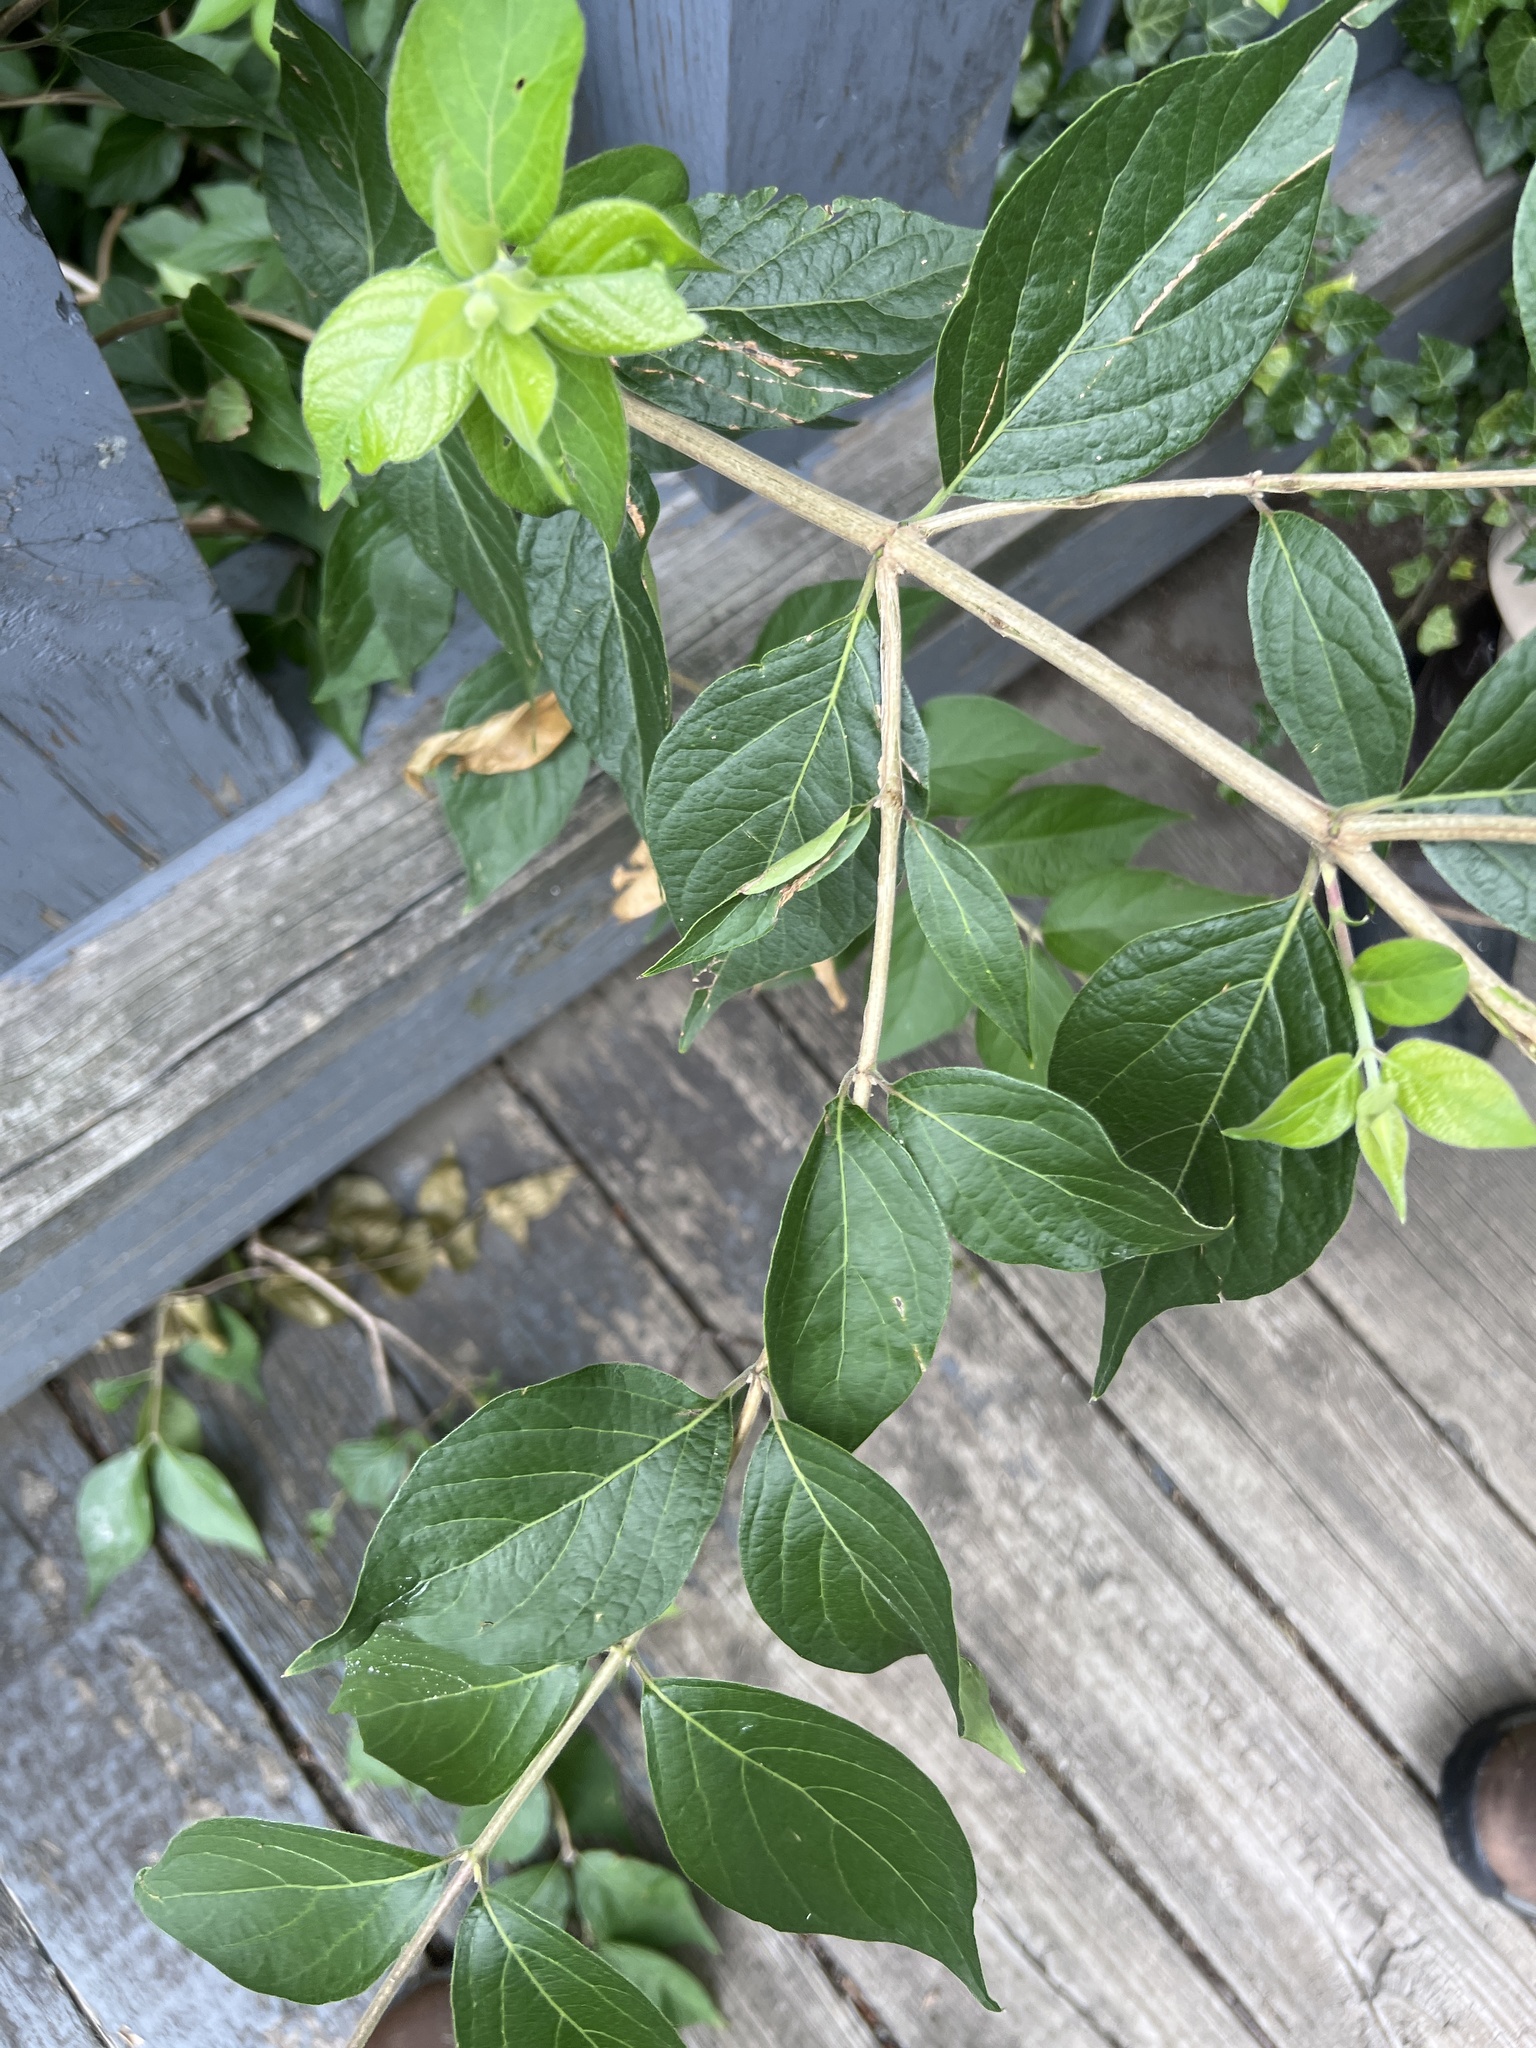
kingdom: Plantae
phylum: Tracheophyta
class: Magnoliopsida
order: Dipsacales
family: Caprifoliaceae
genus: Lonicera
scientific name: Lonicera maackii
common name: Amur honeysuckle
